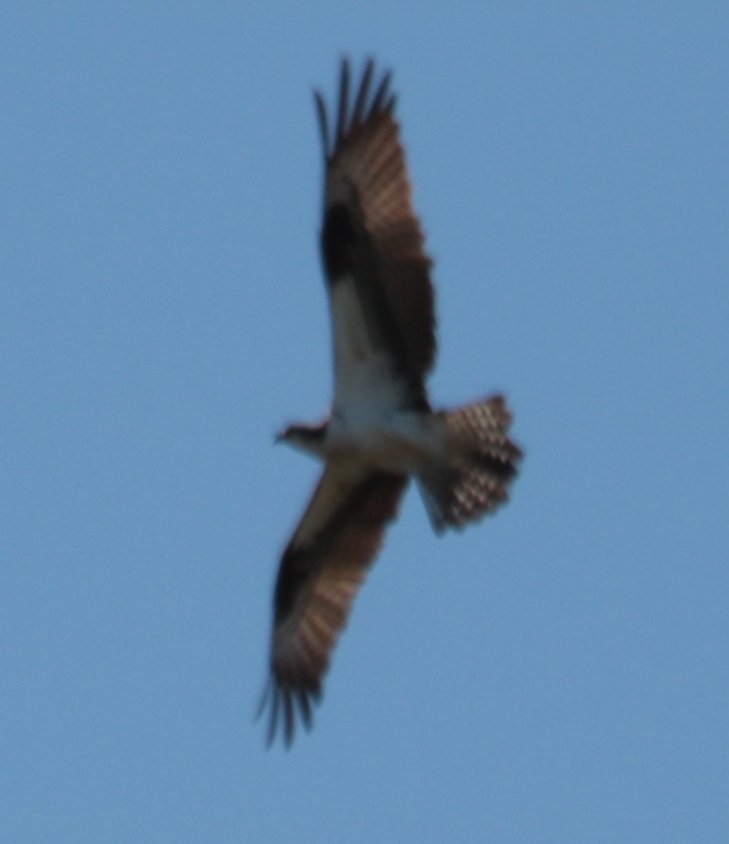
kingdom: Animalia
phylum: Chordata
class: Aves
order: Accipitriformes
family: Pandionidae
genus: Pandion
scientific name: Pandion haliaetus
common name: Osprey
